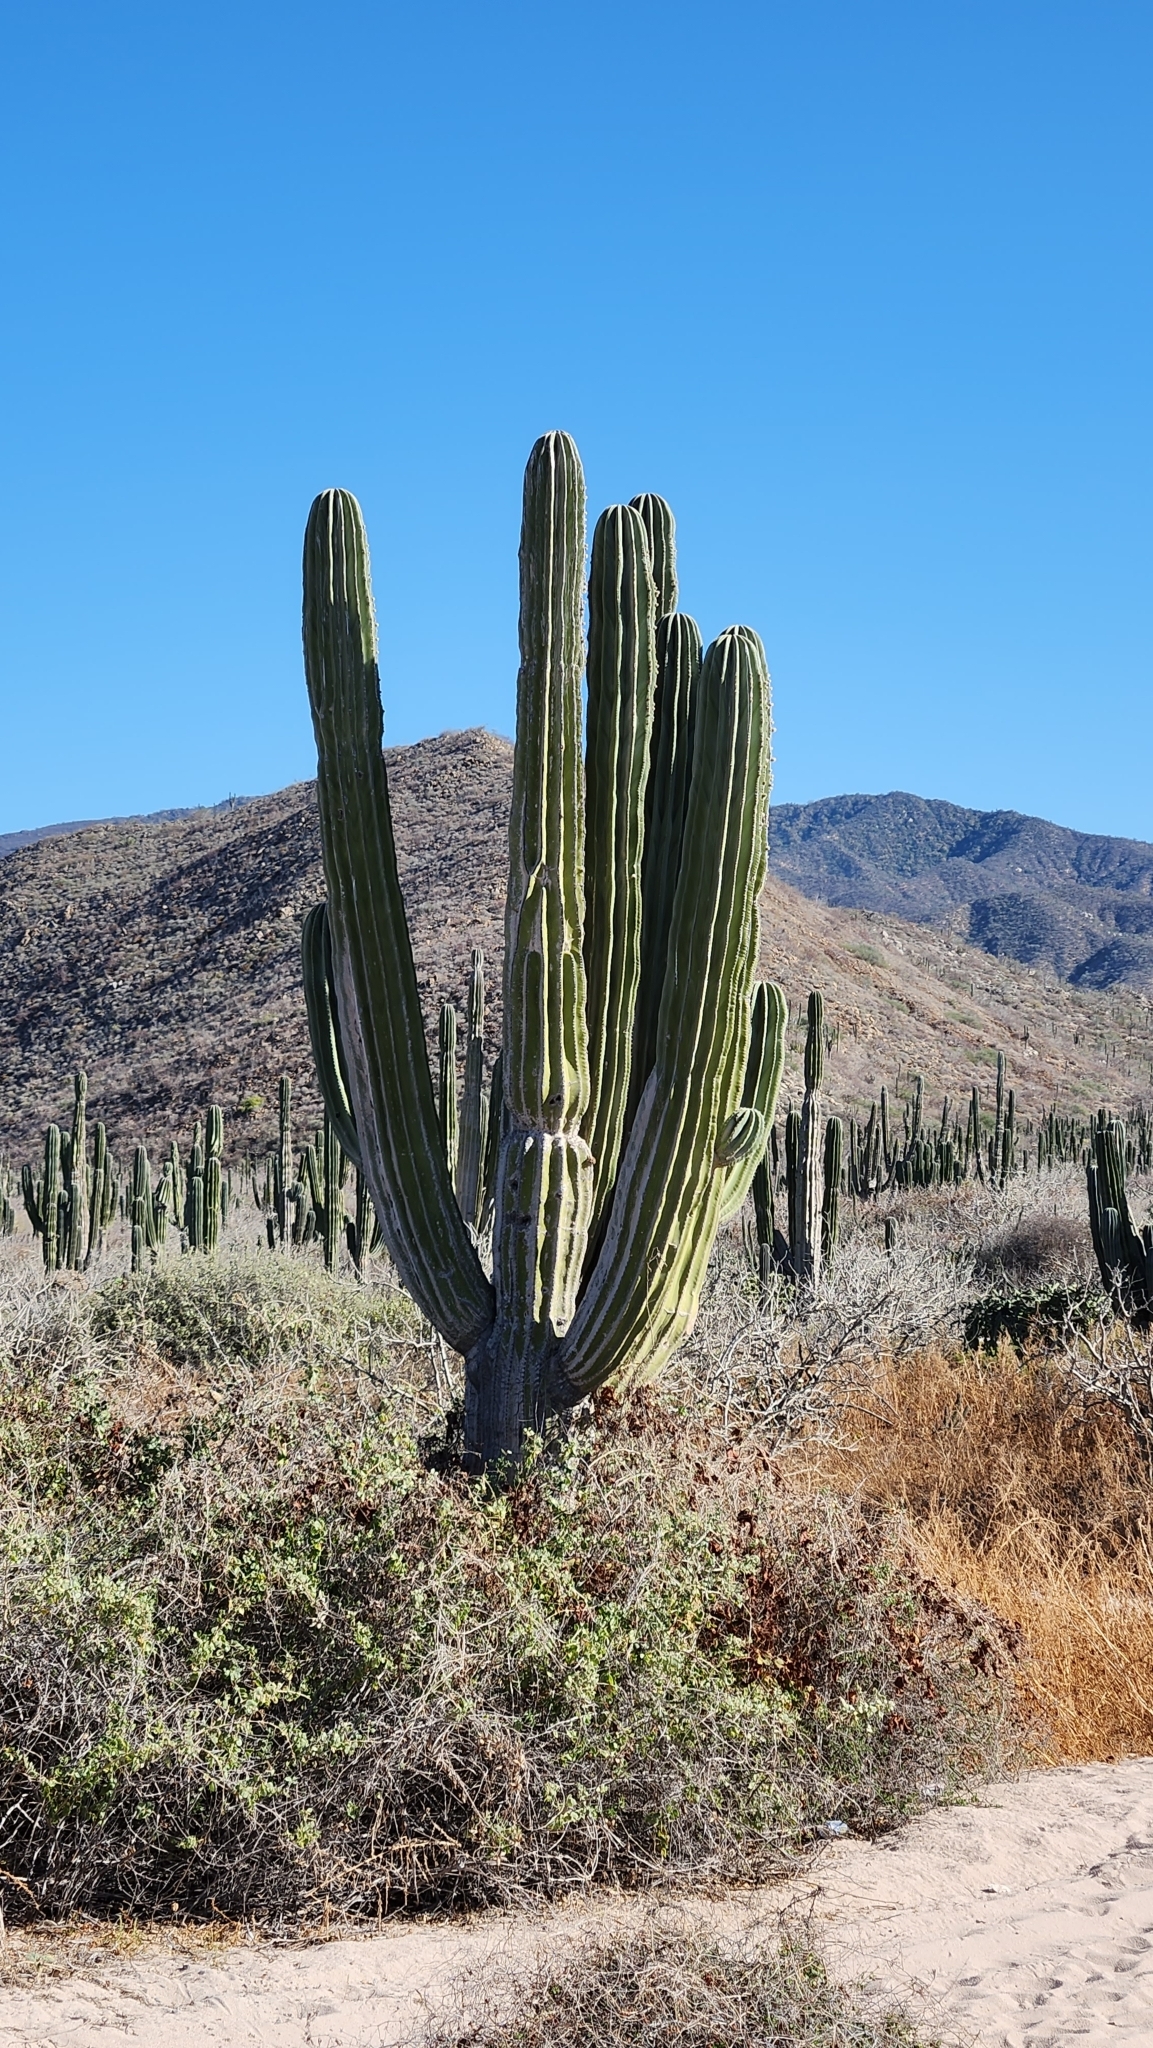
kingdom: Plantae
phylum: Tracheophyta
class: Magnoliopsida
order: Caryophyllales
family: Cactaceae
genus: Pachycereus
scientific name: Pachycereus pringlei
